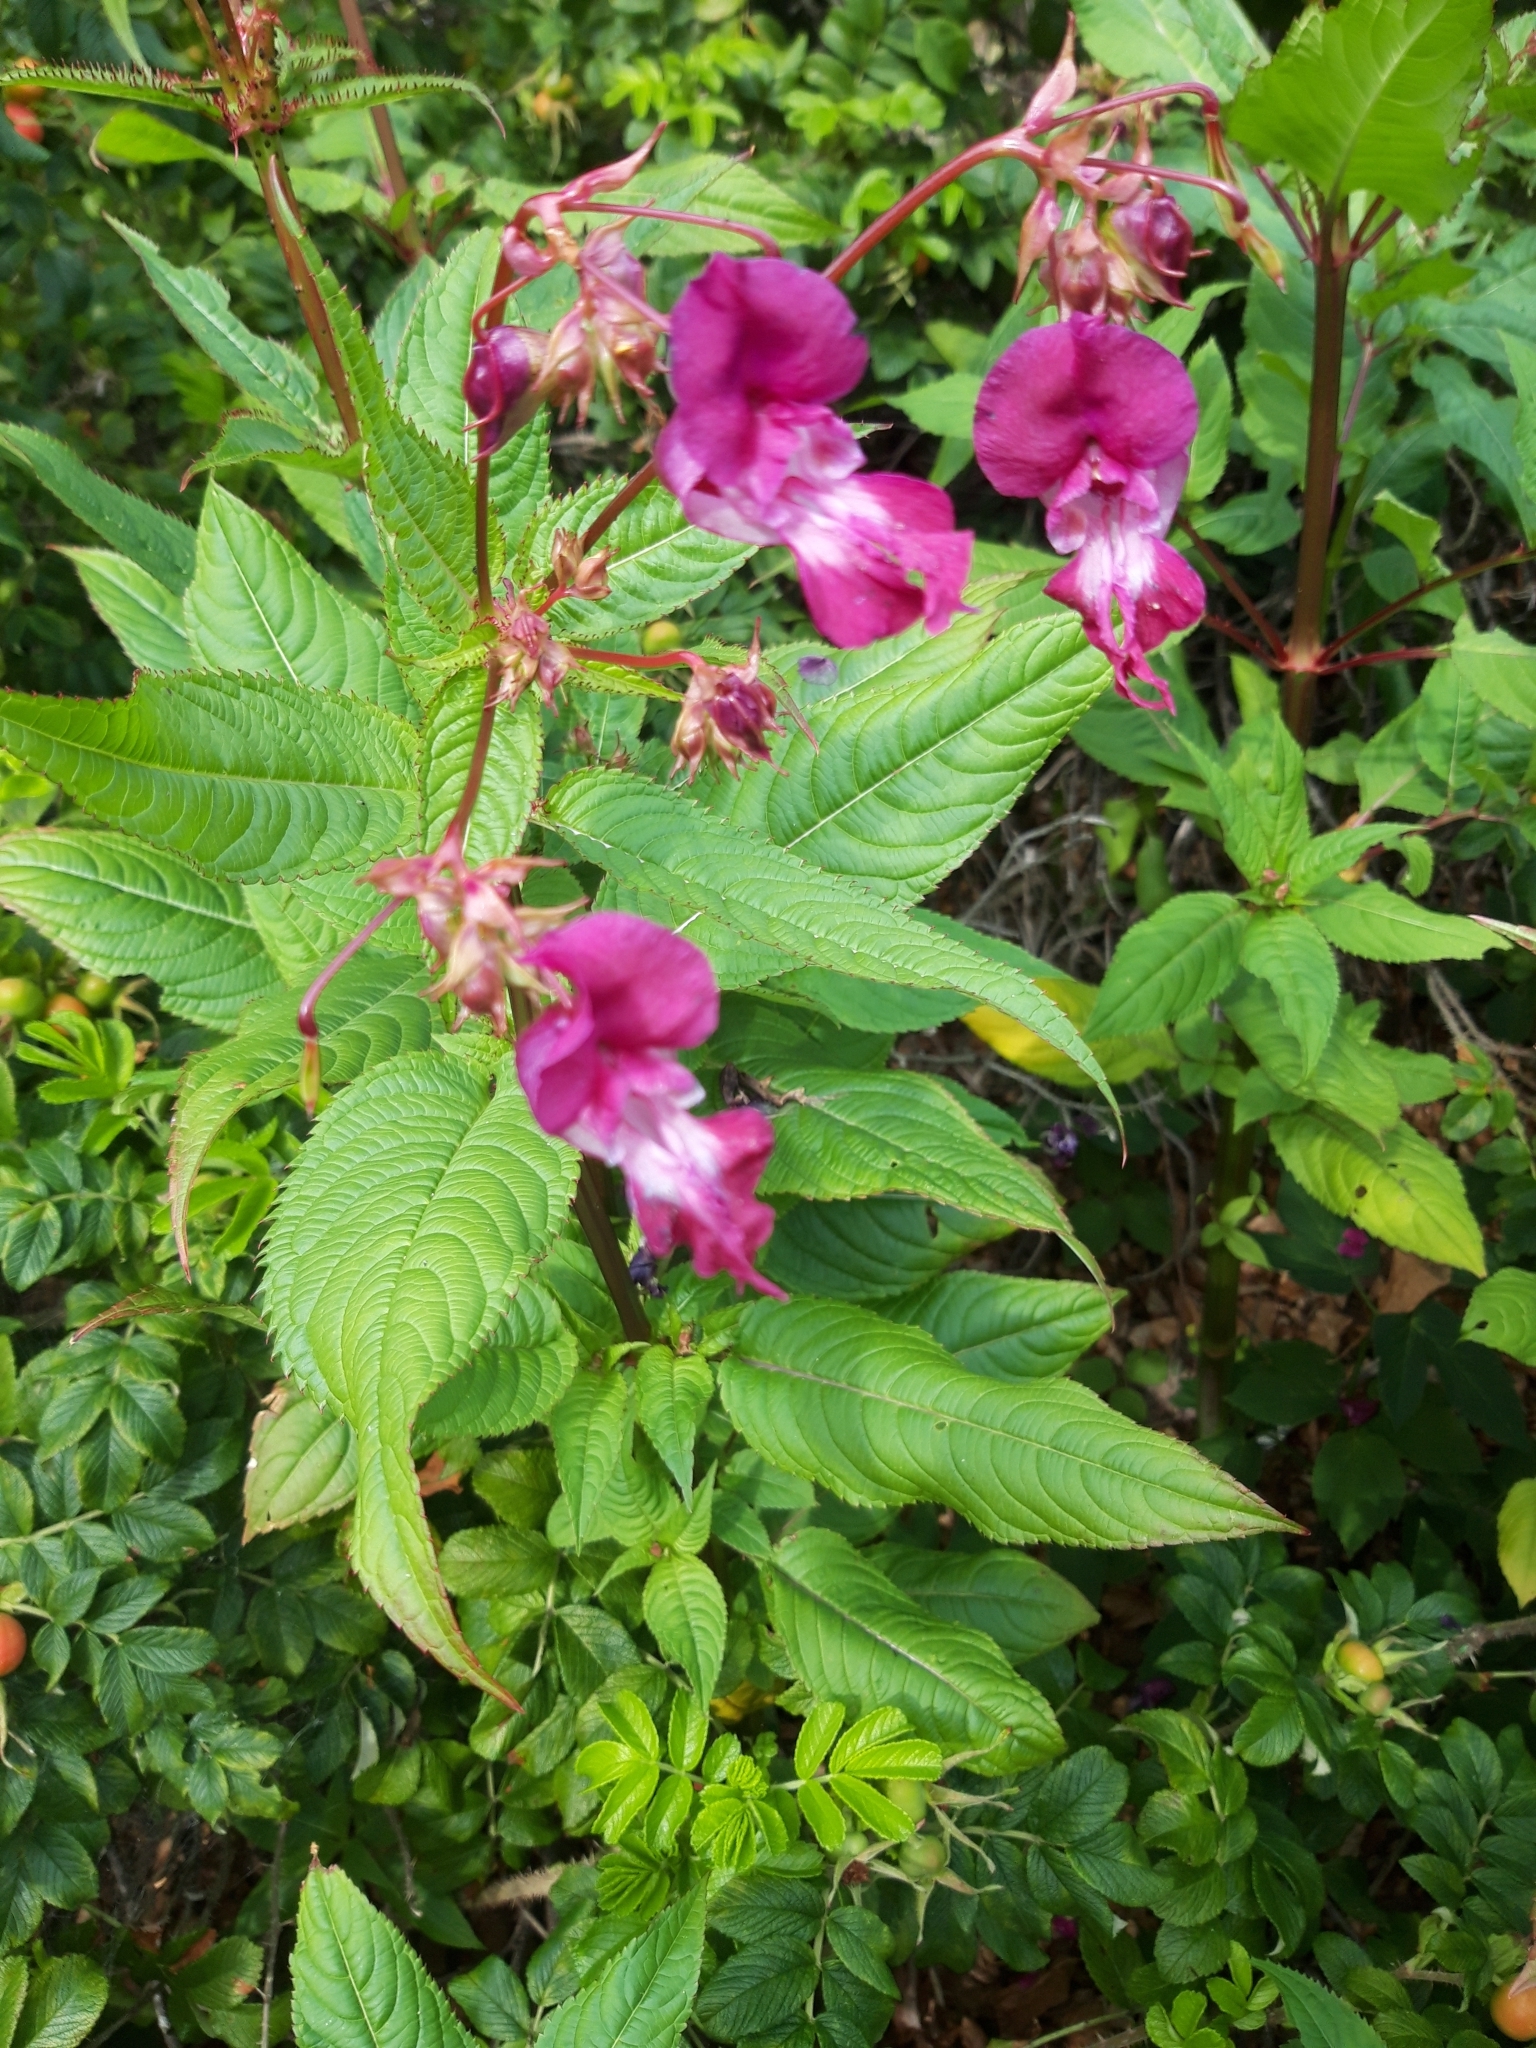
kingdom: Plantae
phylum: Tracheophyta
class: Magnoliopsida
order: Ericales
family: Balsaminaceae
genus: Impatiens
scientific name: Impatiens glandulifera
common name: Himalayan balsam
